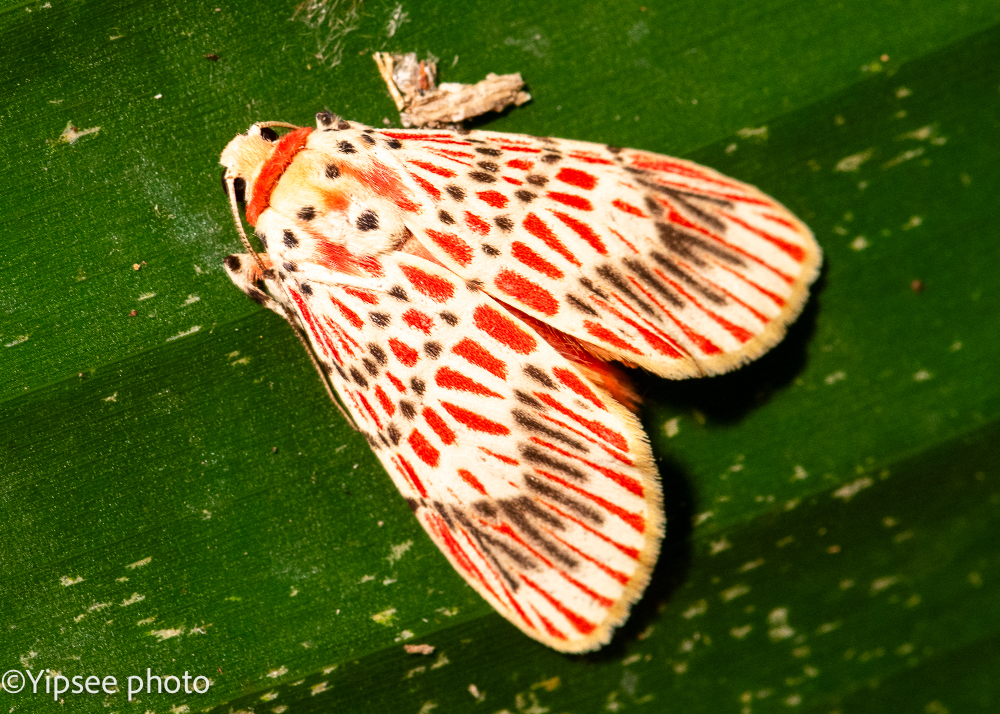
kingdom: Animalia
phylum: Arthropoda
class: Insecta
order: Lepidoptera
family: Erebidae
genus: Barsine
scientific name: Barsine bigamica
